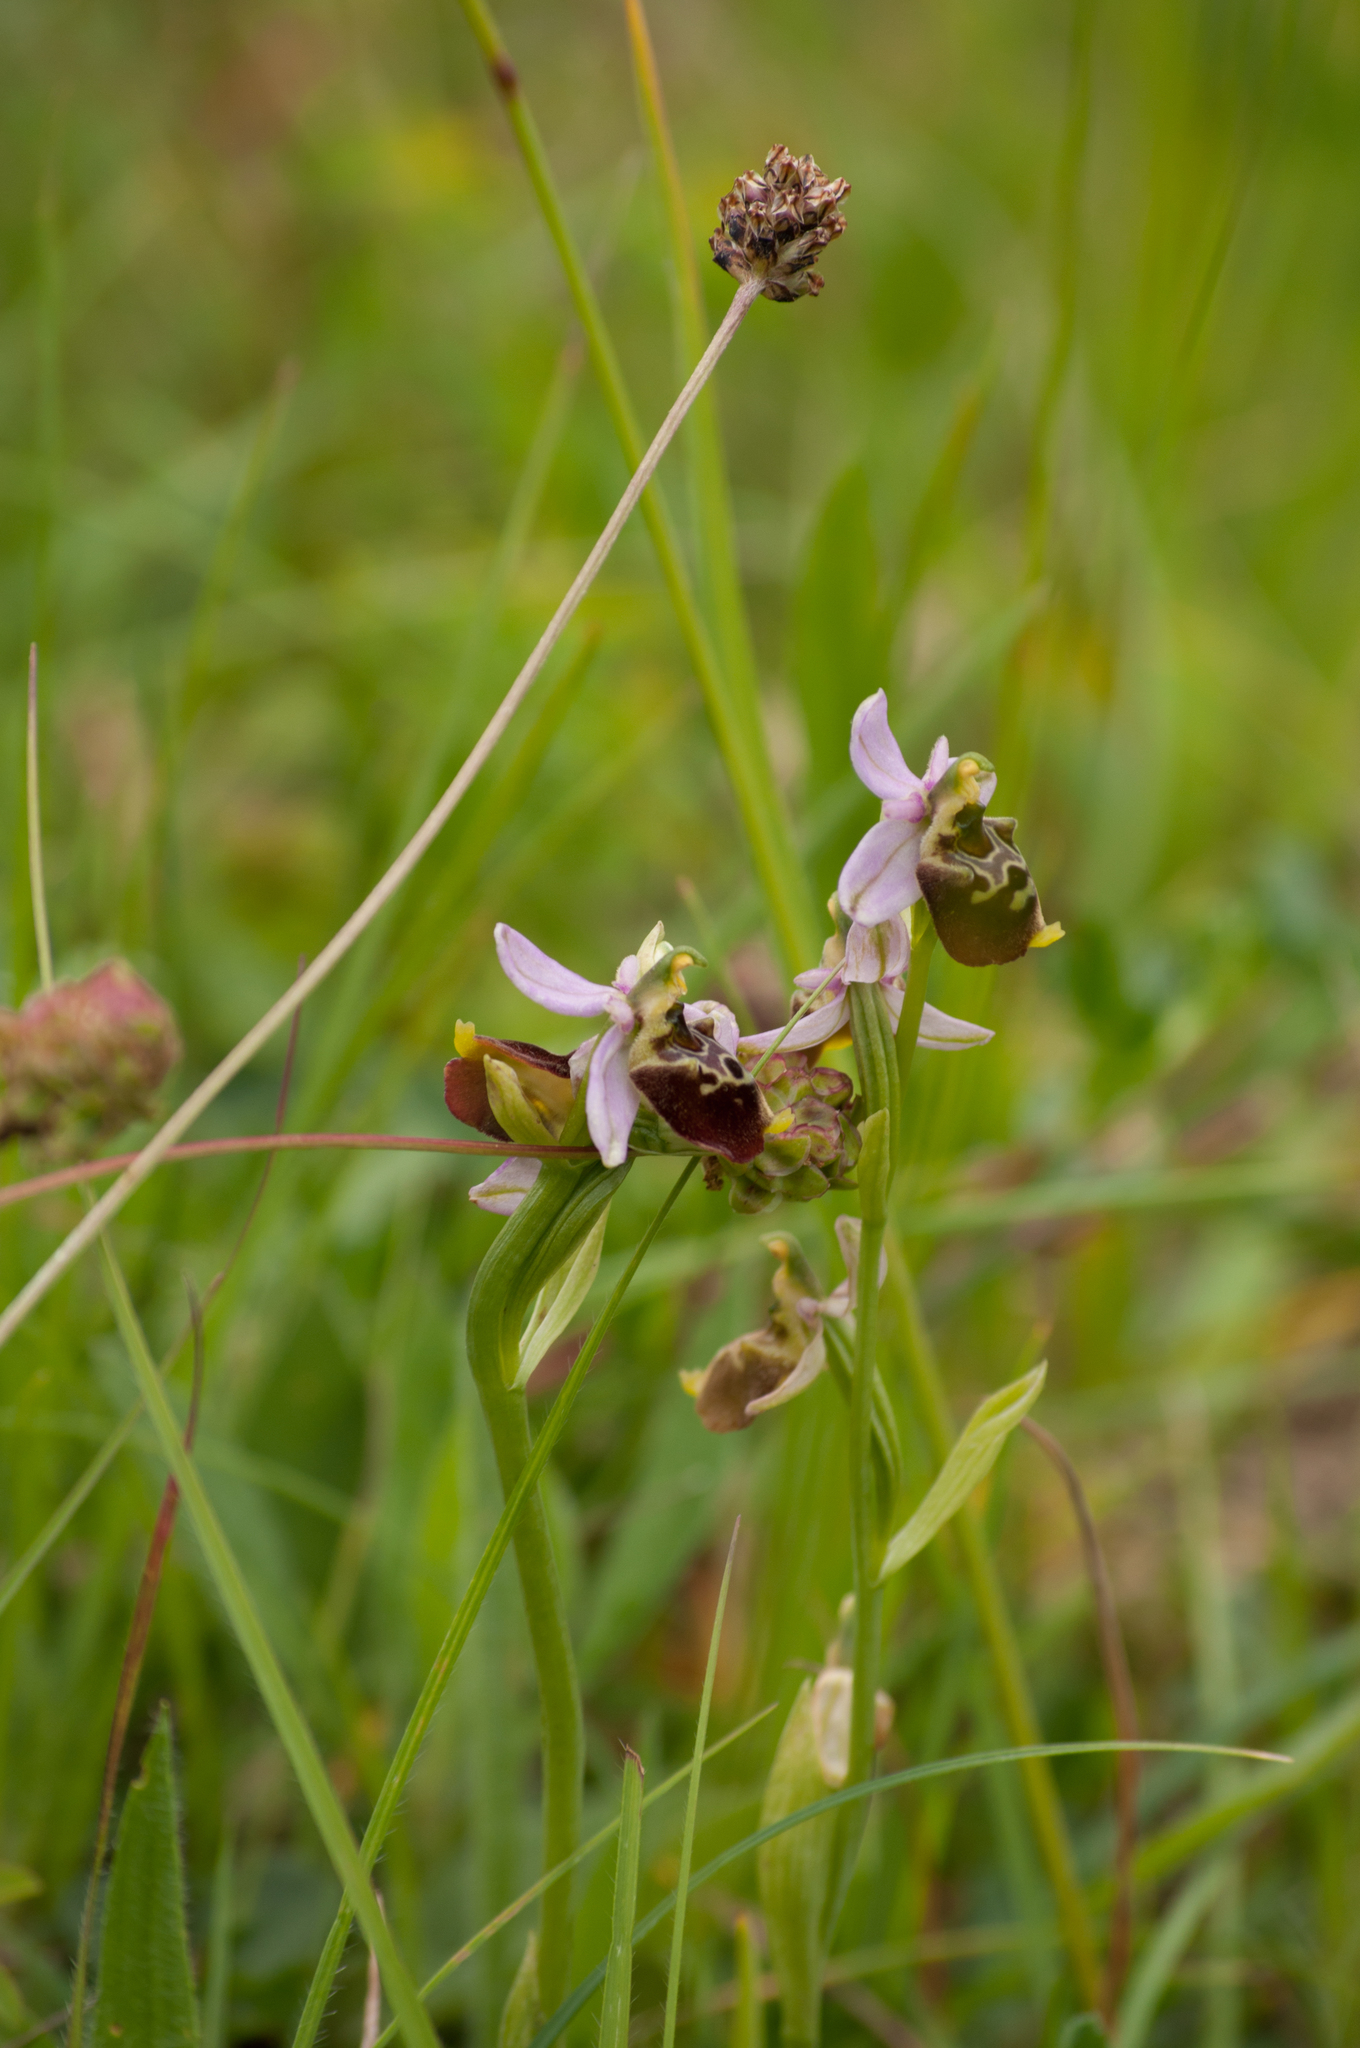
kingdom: Plantae
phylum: Tracheophyta
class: Liliopsida
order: Asparagales
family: Orchidaceae
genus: Ophrys
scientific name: Ophrys holosericea
